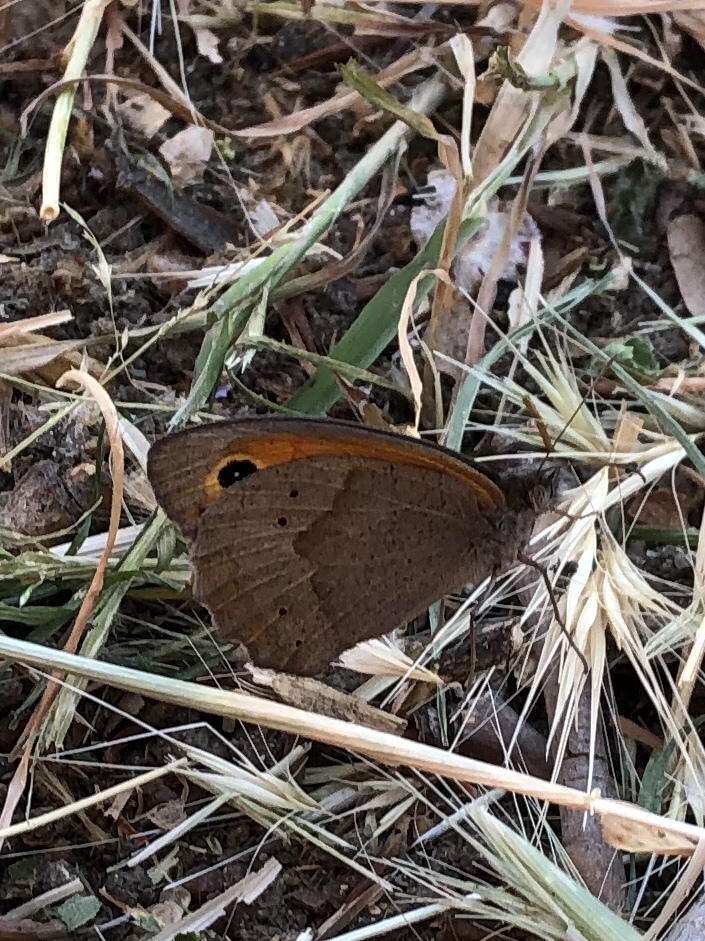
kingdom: Animalia
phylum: Arthropoda
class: Insecta
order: Lepidoptera
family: Nymphalidae
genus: Maniola
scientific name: Maniola jurtina
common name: Meadow brown
